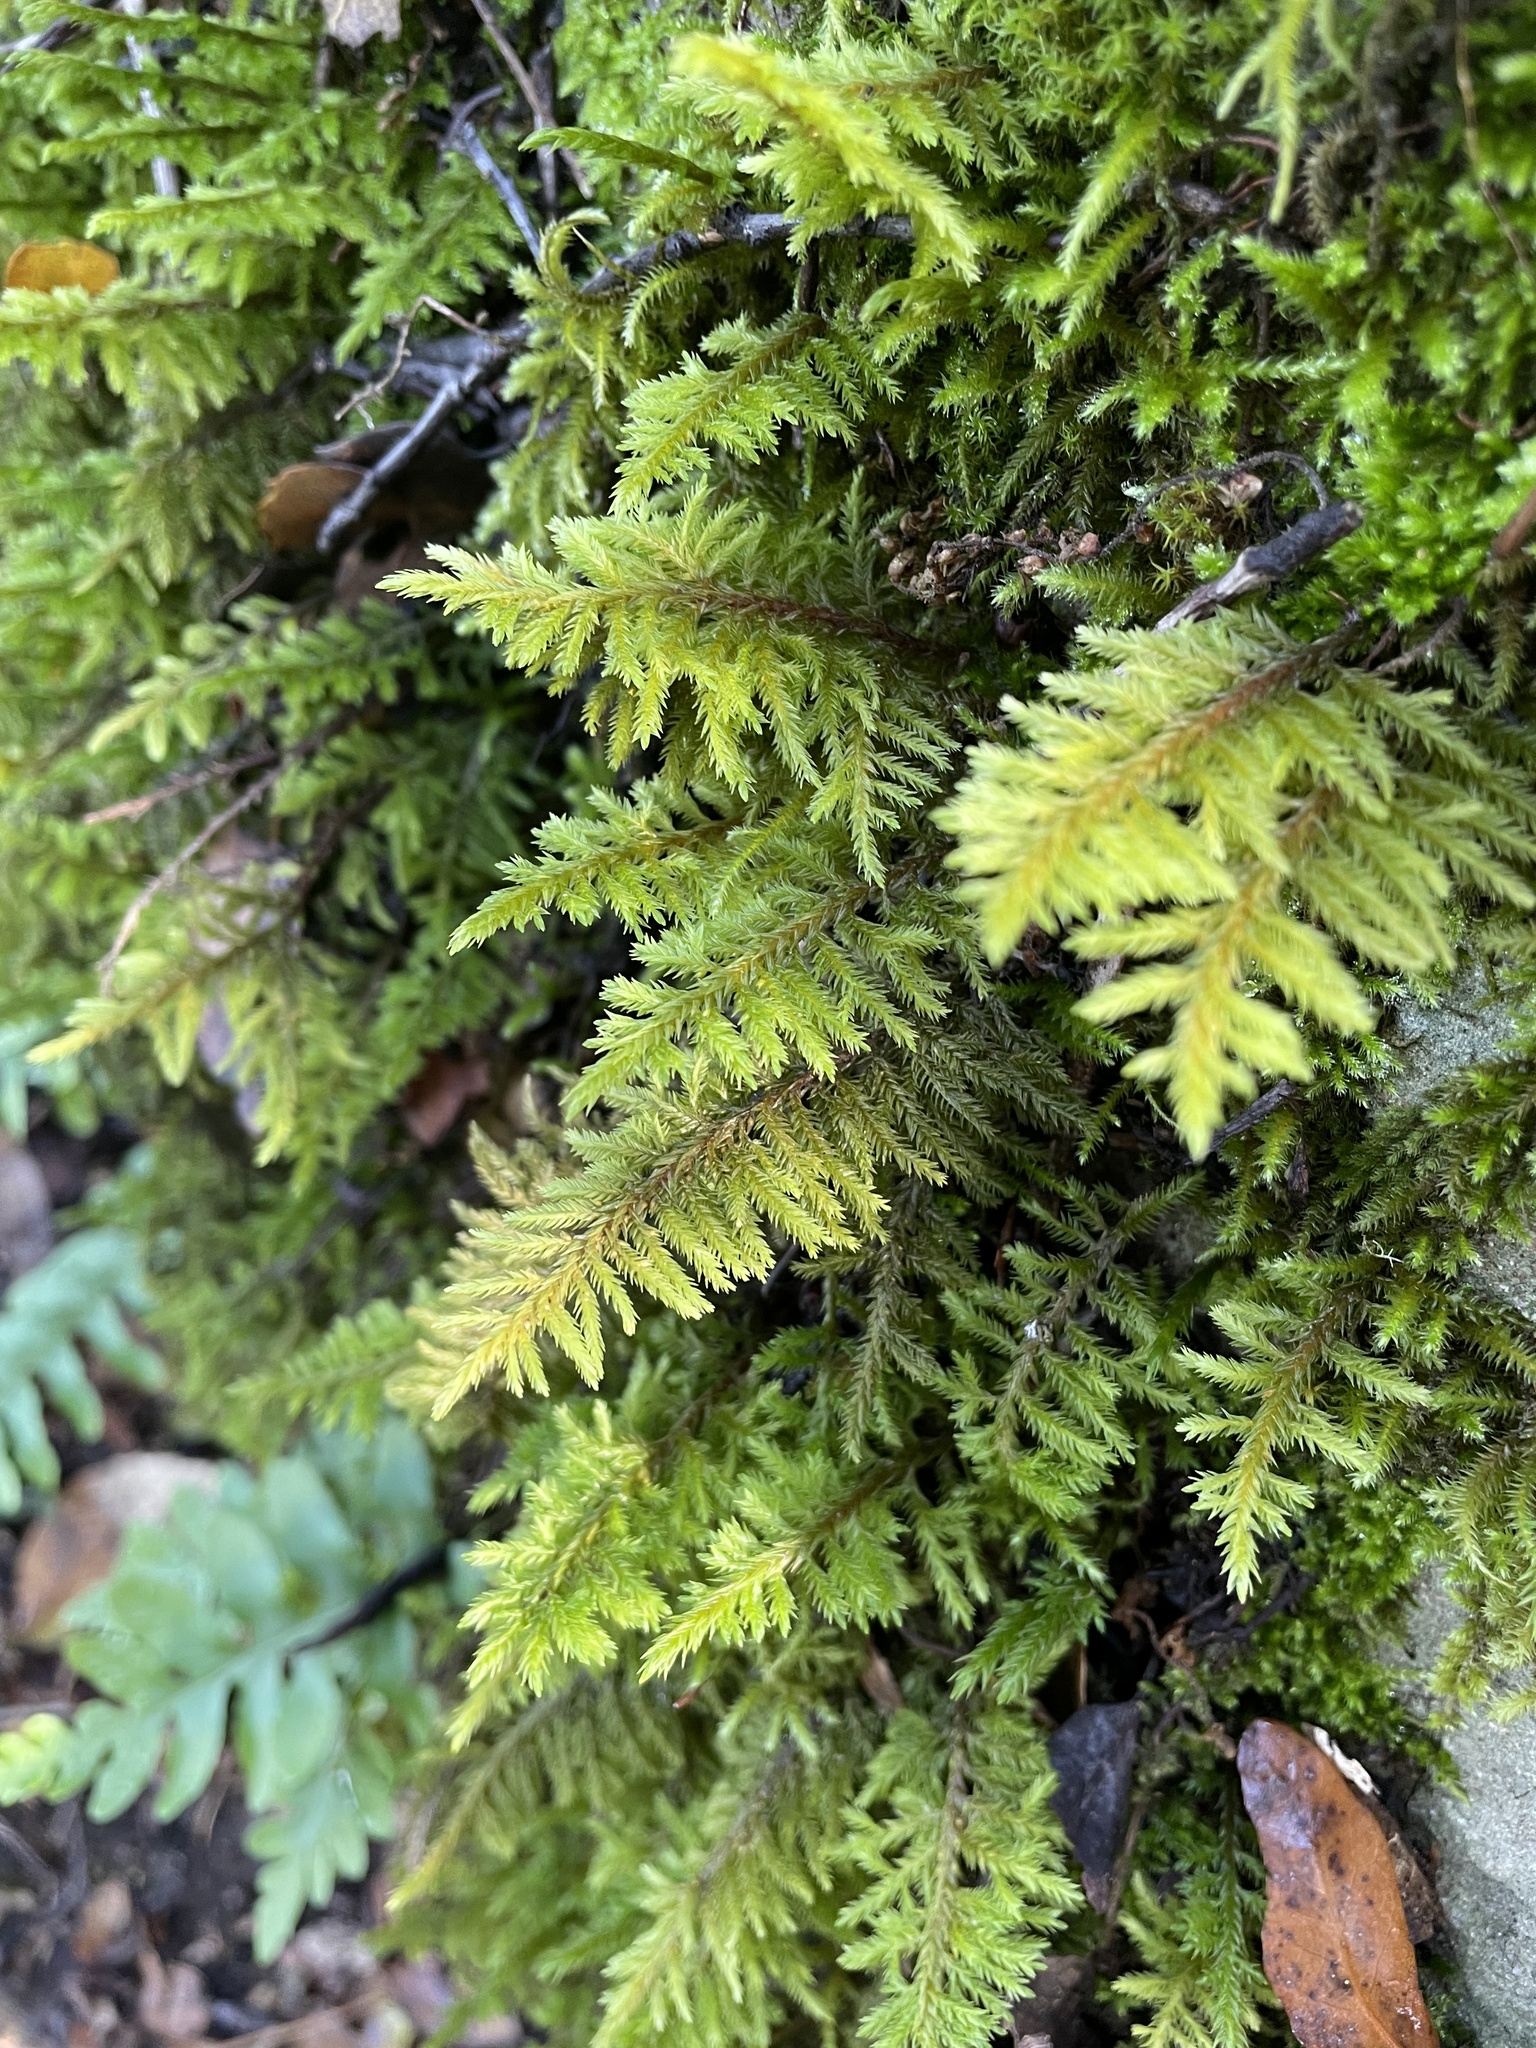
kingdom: Plantae
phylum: Bryophyta
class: Bryopsida
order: Hypnales
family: Cryphaeaceae
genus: Dendroalsia
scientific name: Dendroalsia abietina
